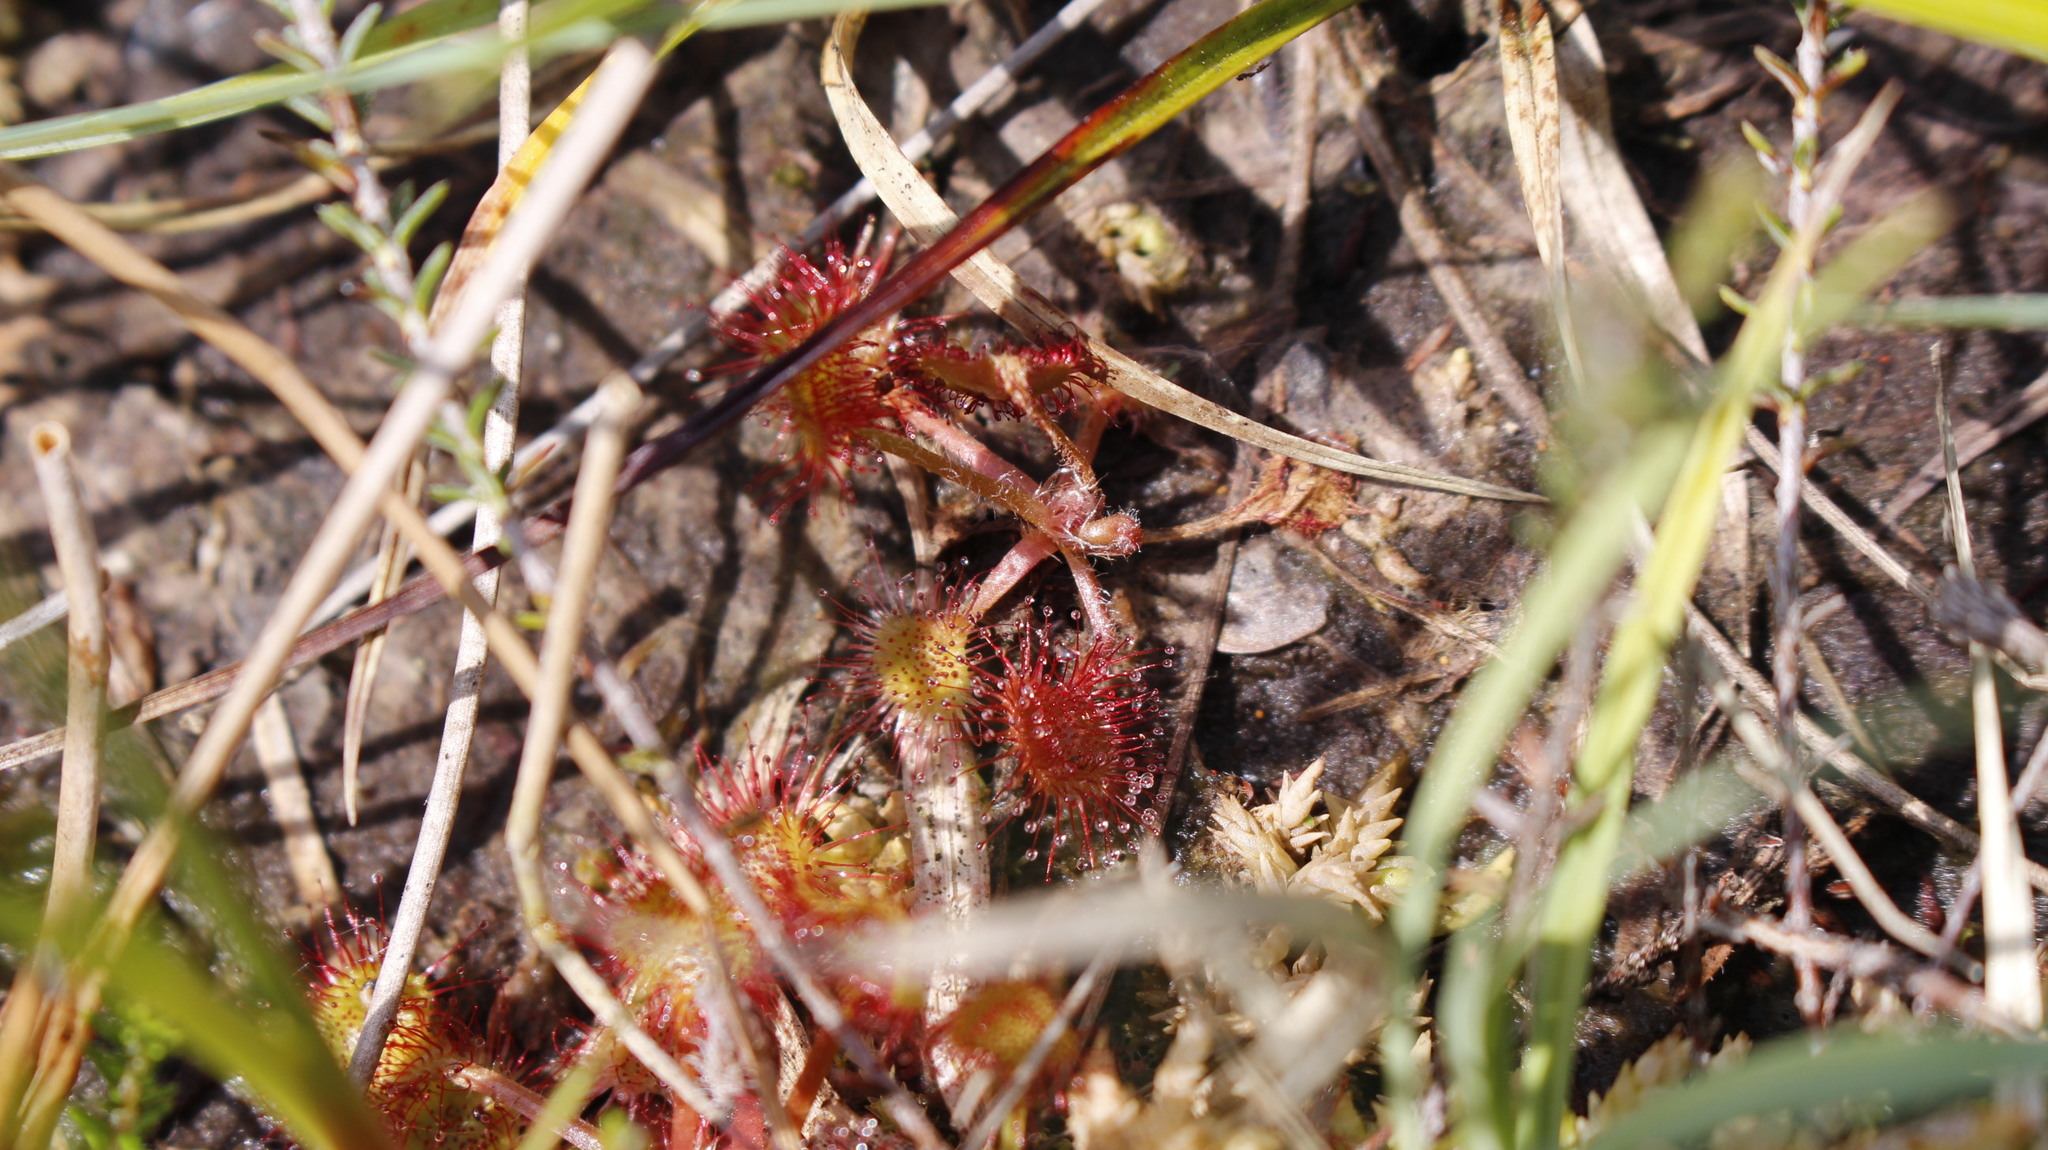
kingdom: Plantae
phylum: Tracheophyta
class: Magnoliopsida
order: Caryophyllales
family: Droseraceae
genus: Drosera
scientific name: Drosera rotundifolia
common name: Round-leaved sundew
